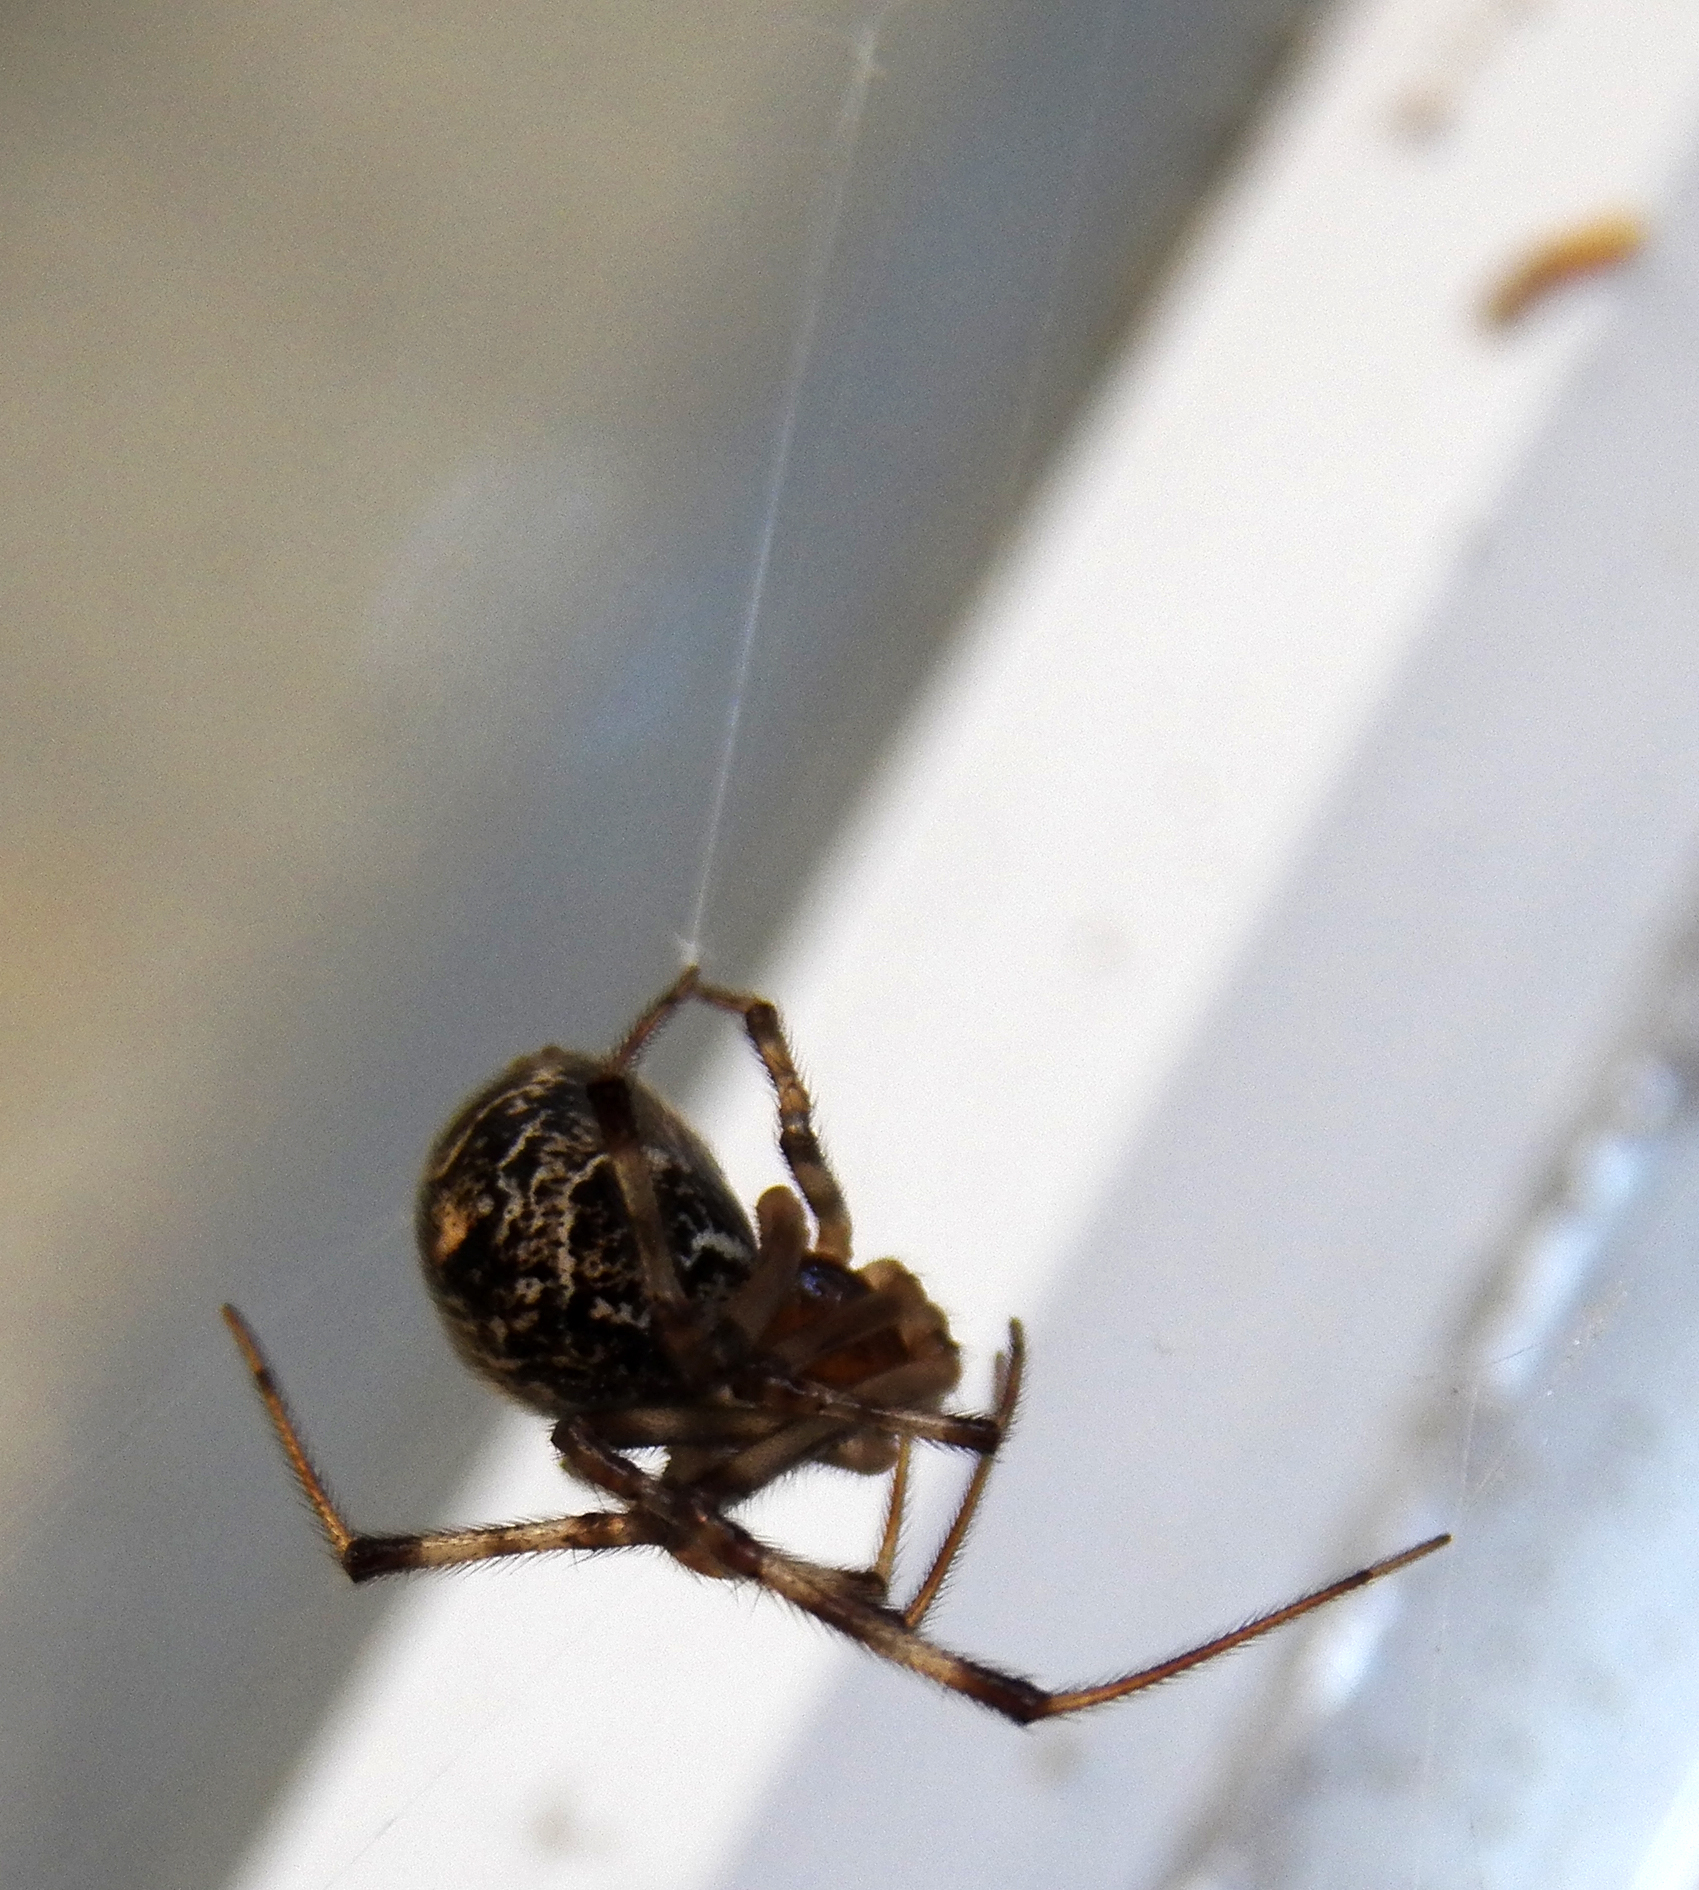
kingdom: Animalia
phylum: Arthropoda
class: Arachnida
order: Araneae
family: Theridiidae
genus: Parasteatoda
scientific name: Parasteatoda tepidariorum
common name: Common house spider
